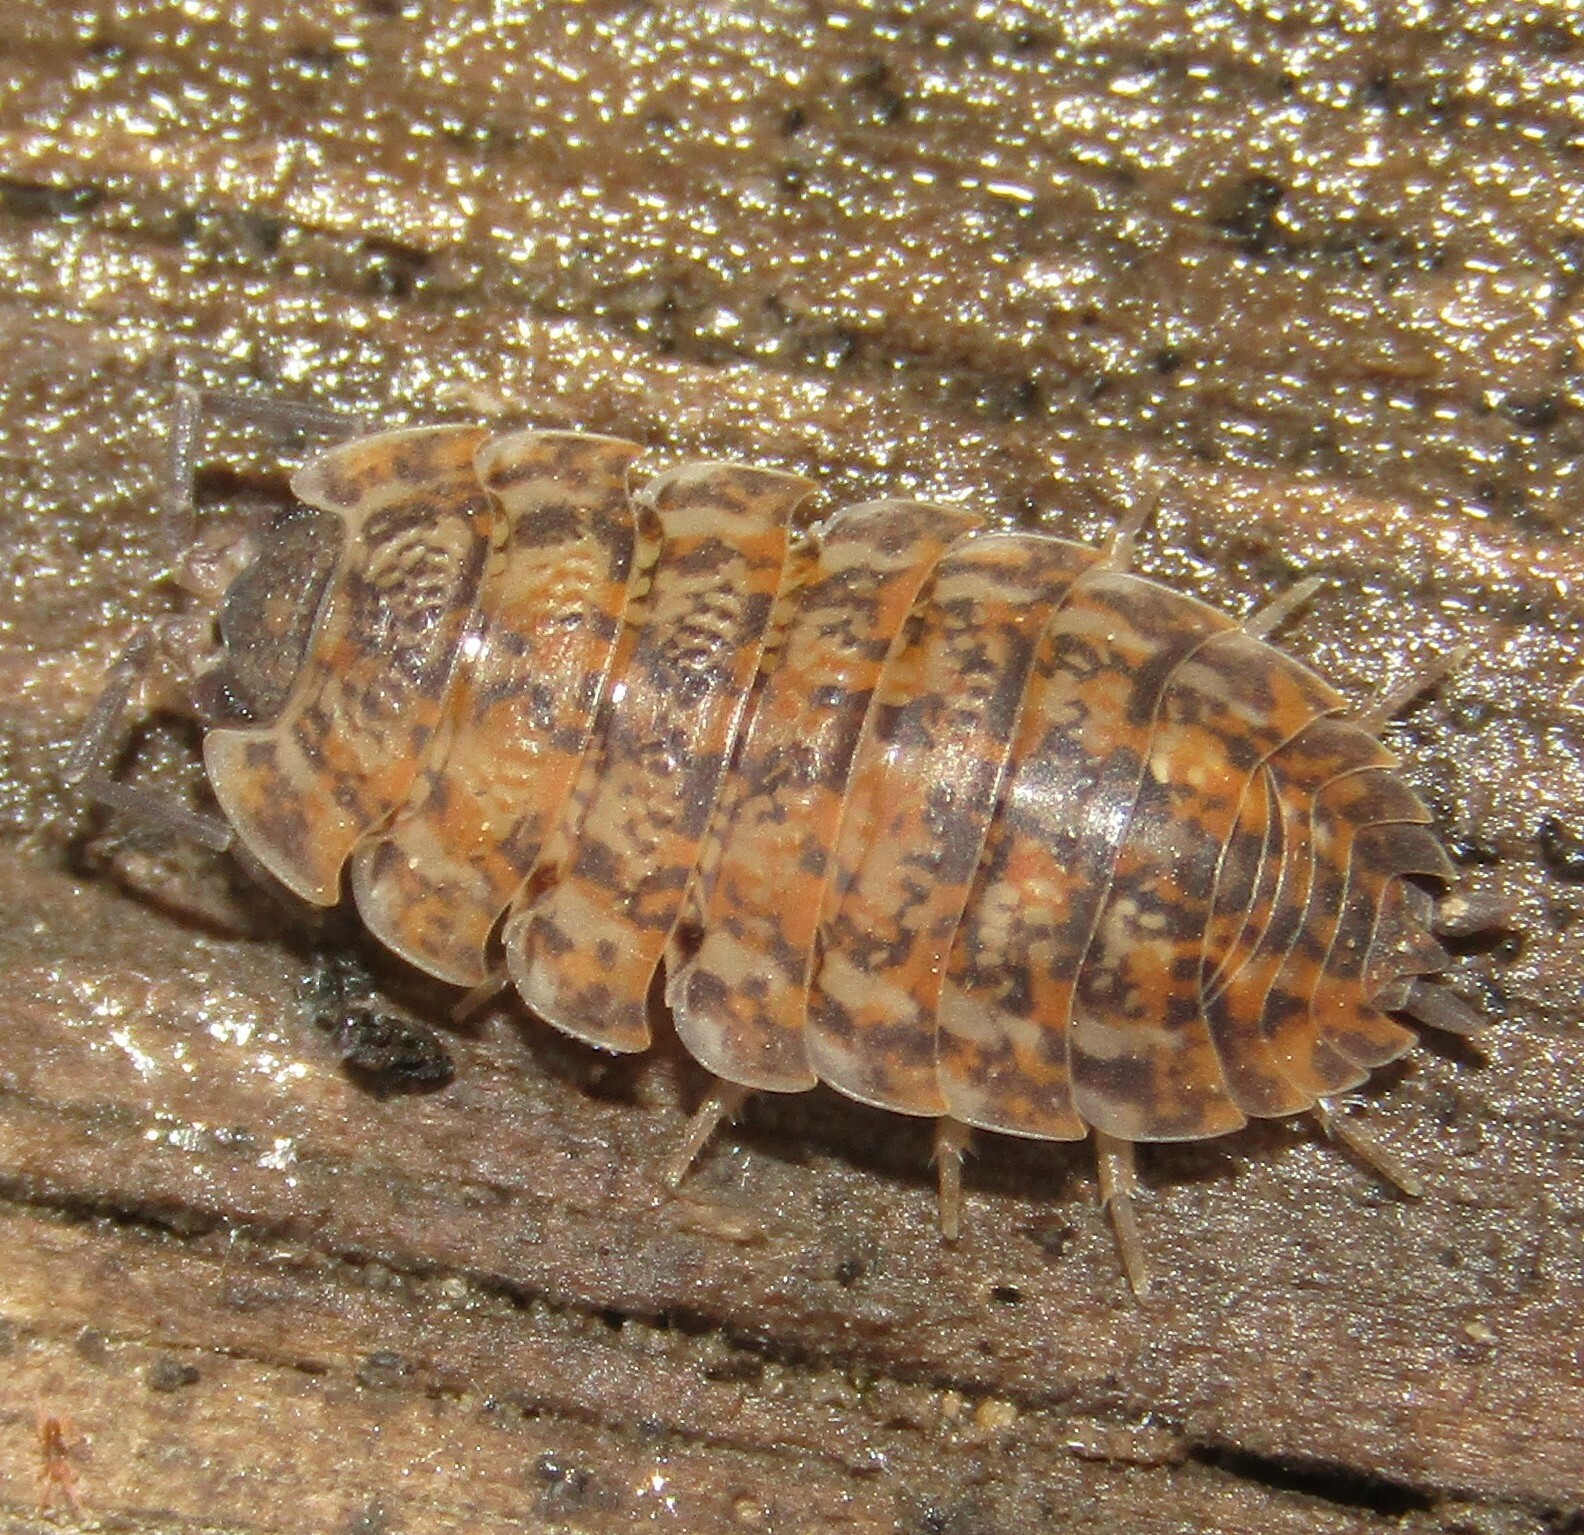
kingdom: Animalia
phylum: Arthropoda
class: Malacostraca
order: Isopoda
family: Trachelipodidae
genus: Trachelipus
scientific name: Trachelipus rathkii
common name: Isopod
